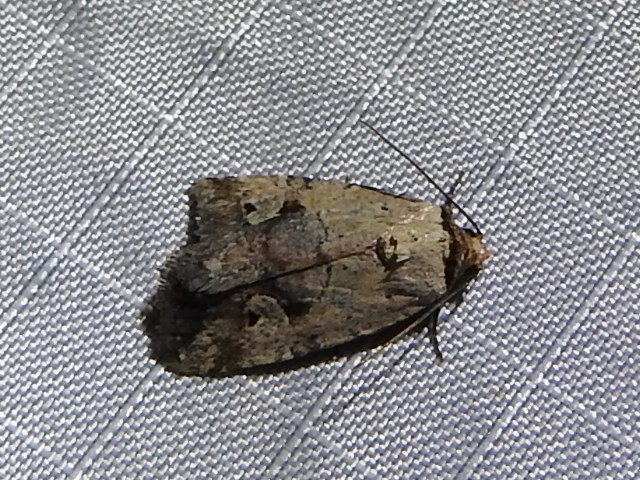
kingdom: Animalia
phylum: Arthropoda
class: Insecta
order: Lepidoptera
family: Noctuidae
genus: Elaphria
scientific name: Elaphria festivoides
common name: Festive midget
